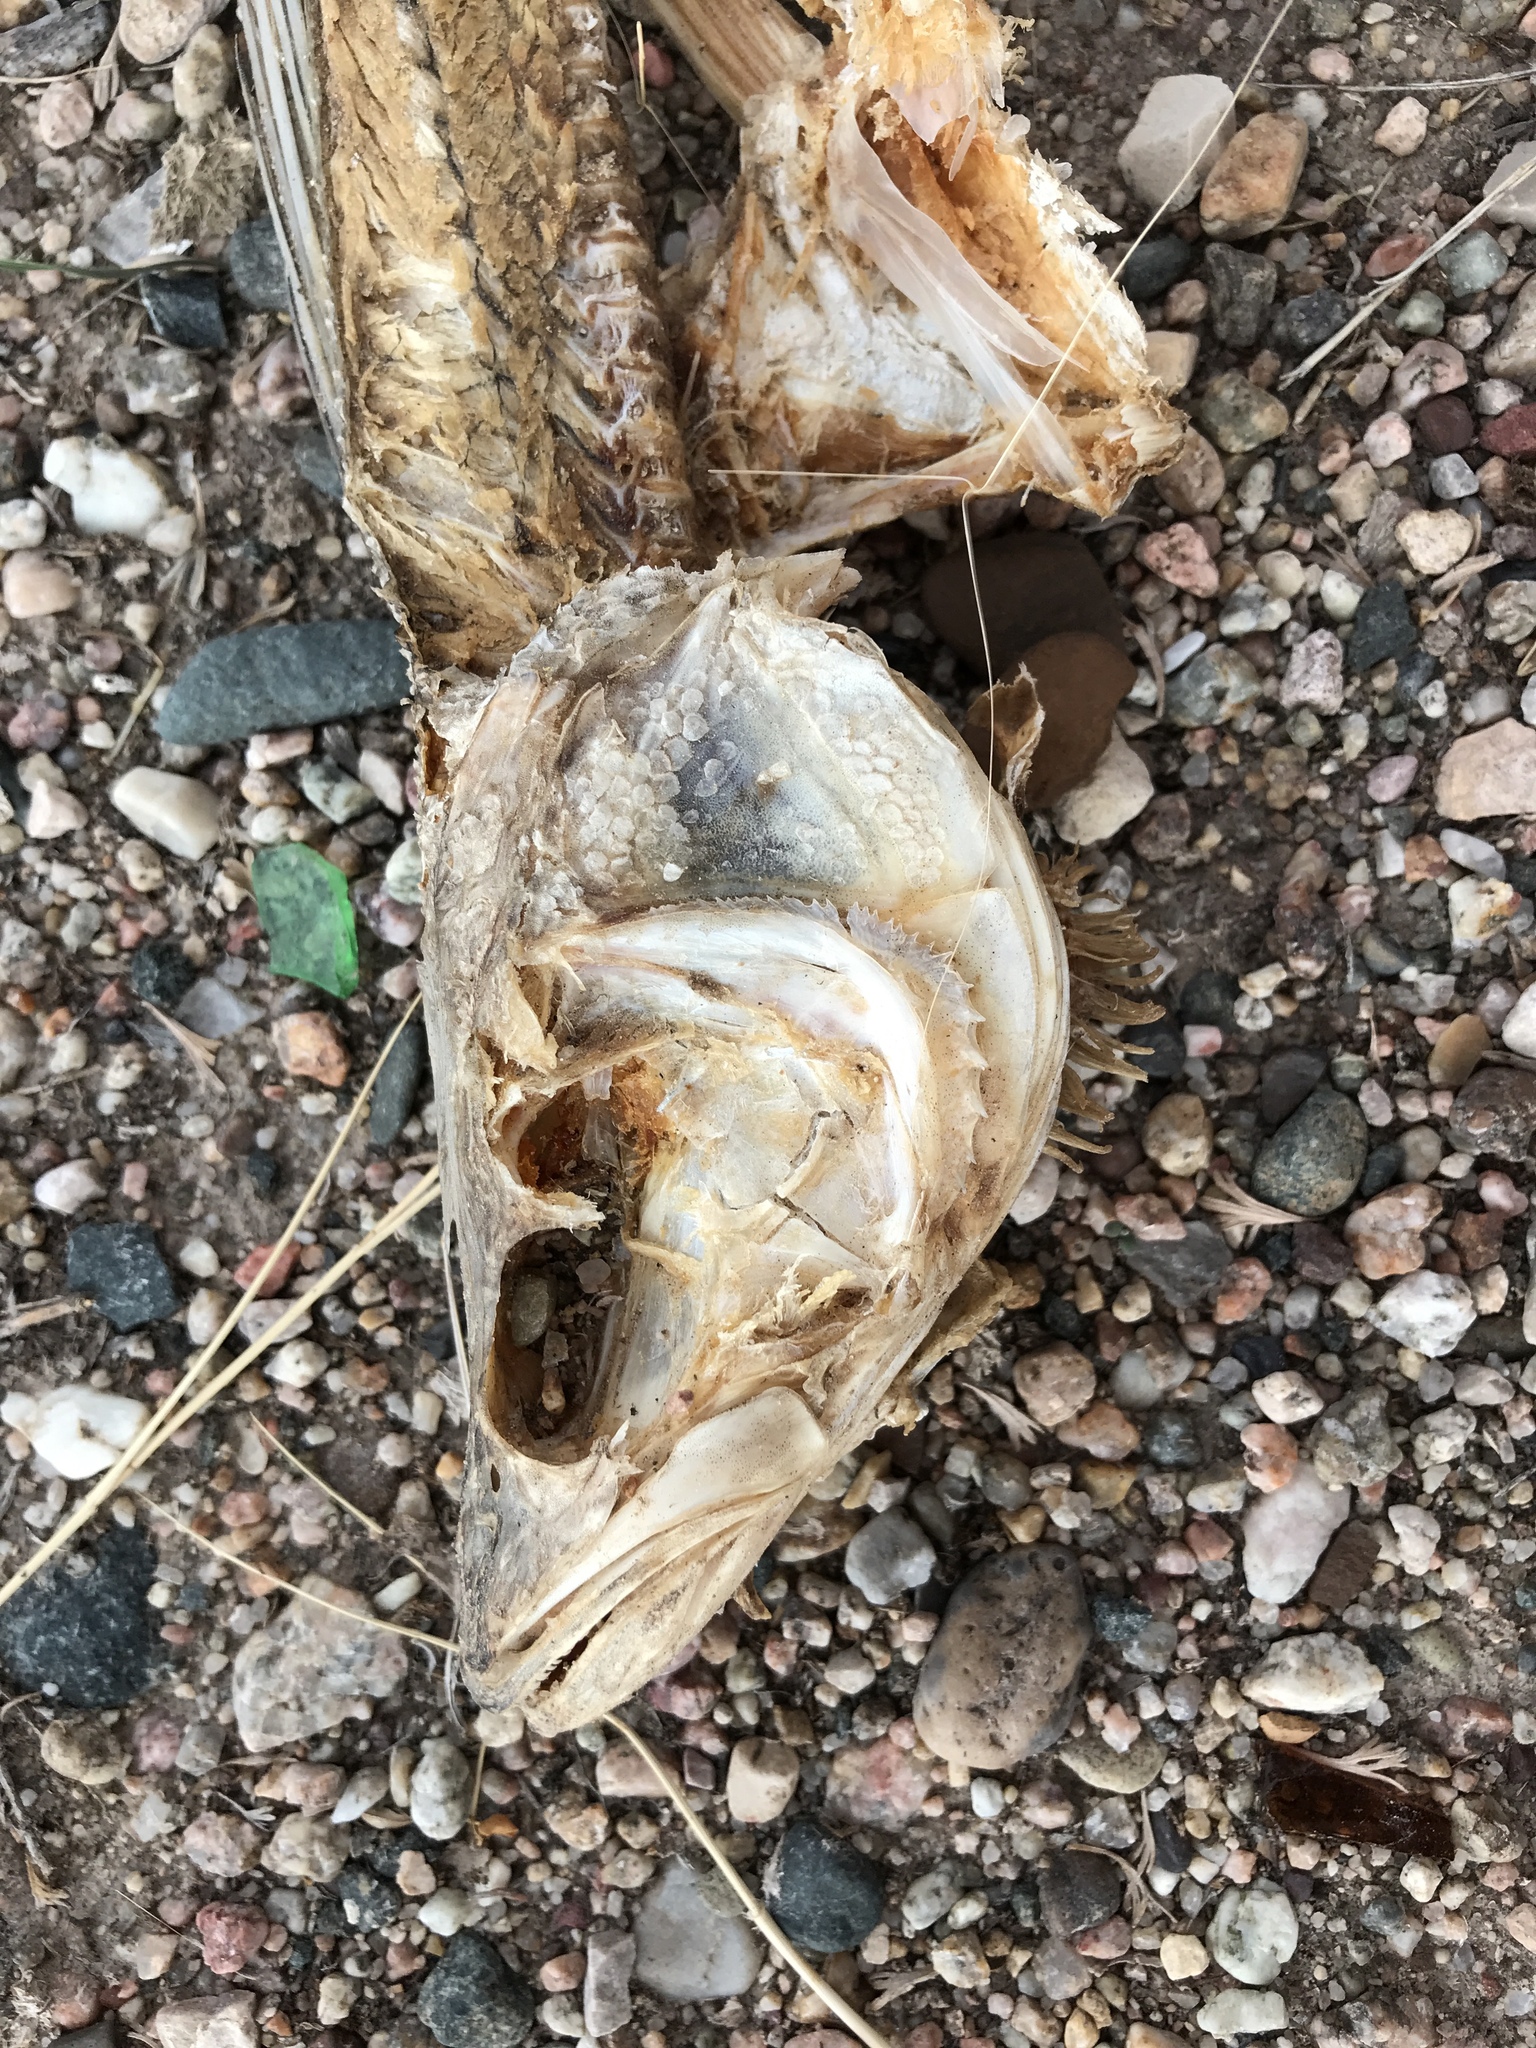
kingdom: Animalia
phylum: Chordata
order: Perciformes
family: Percidae
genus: Sander
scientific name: Sander vitreus
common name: Walleye
